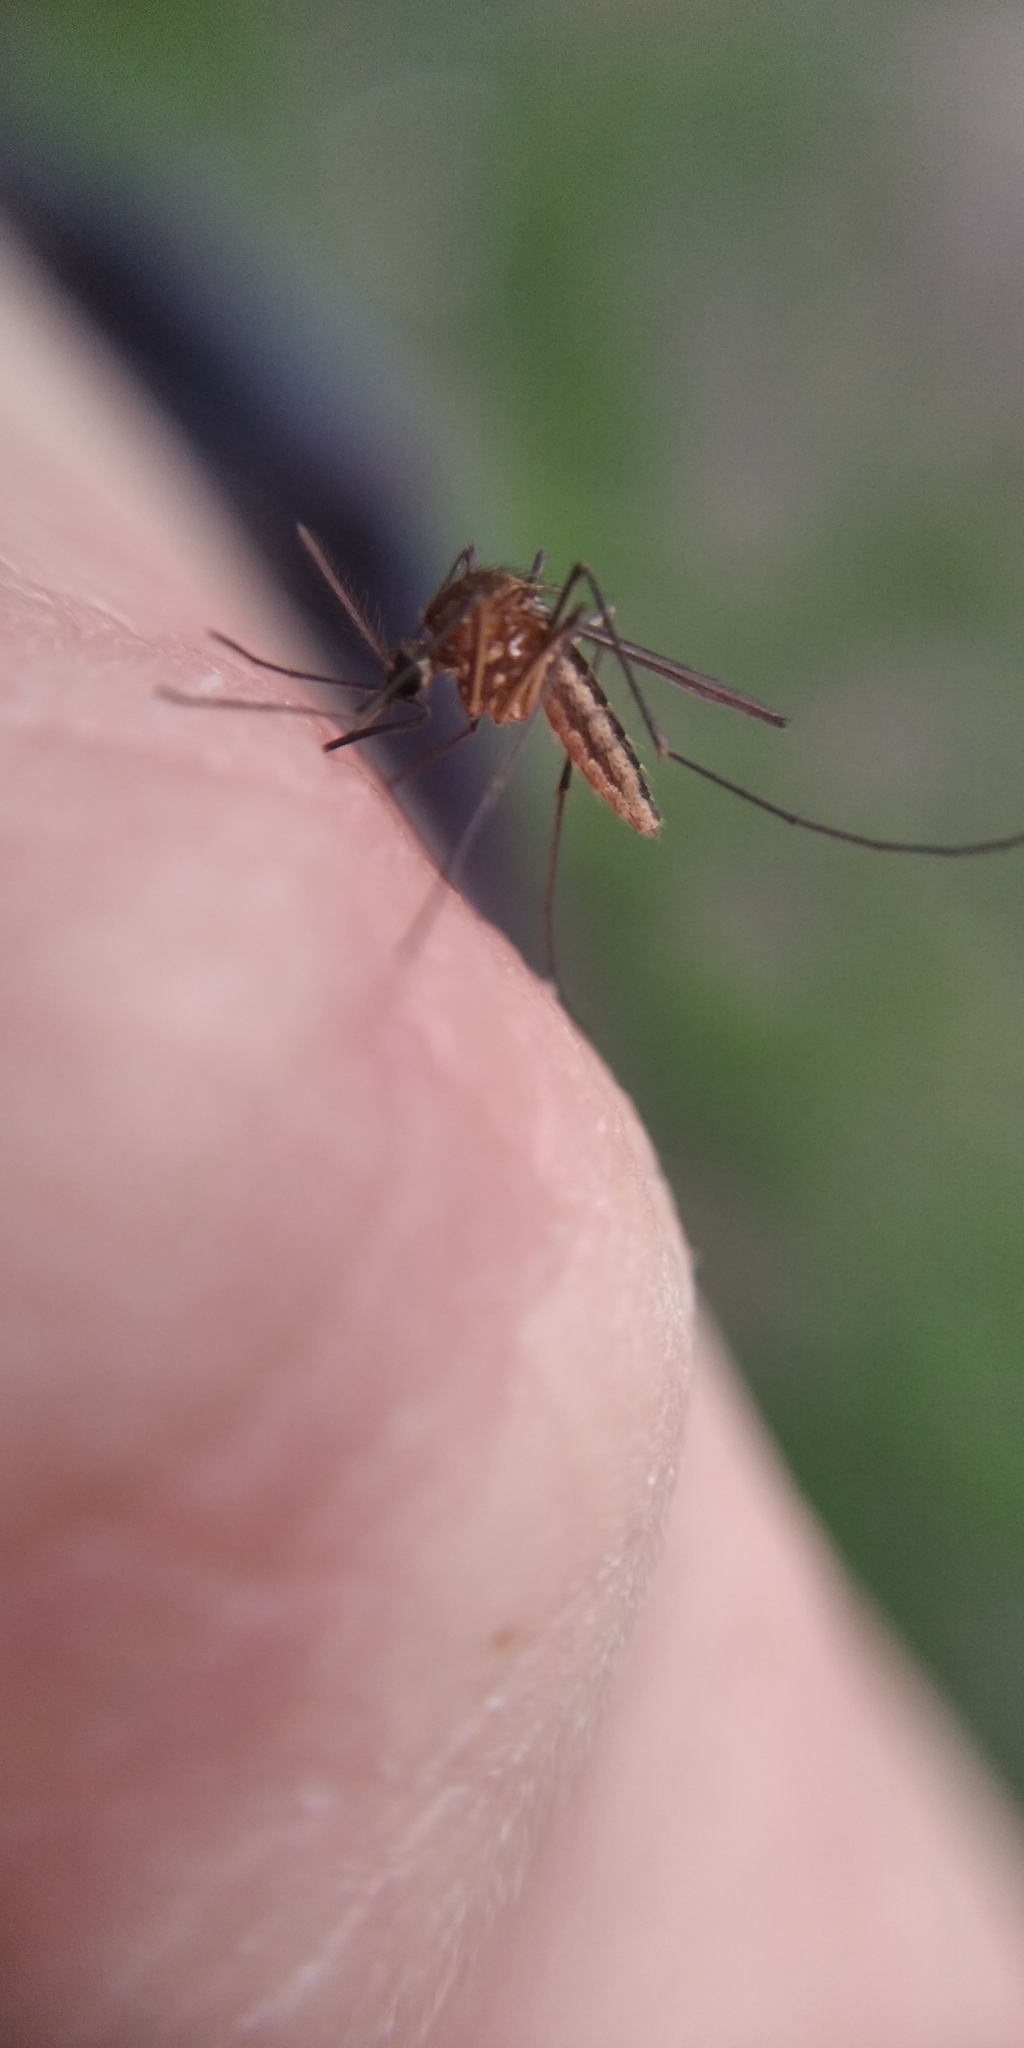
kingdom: Animalia
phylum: Arthropoda
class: Insecta
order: Diptera
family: Culicidae
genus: Aedes
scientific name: Aedes cinereus
